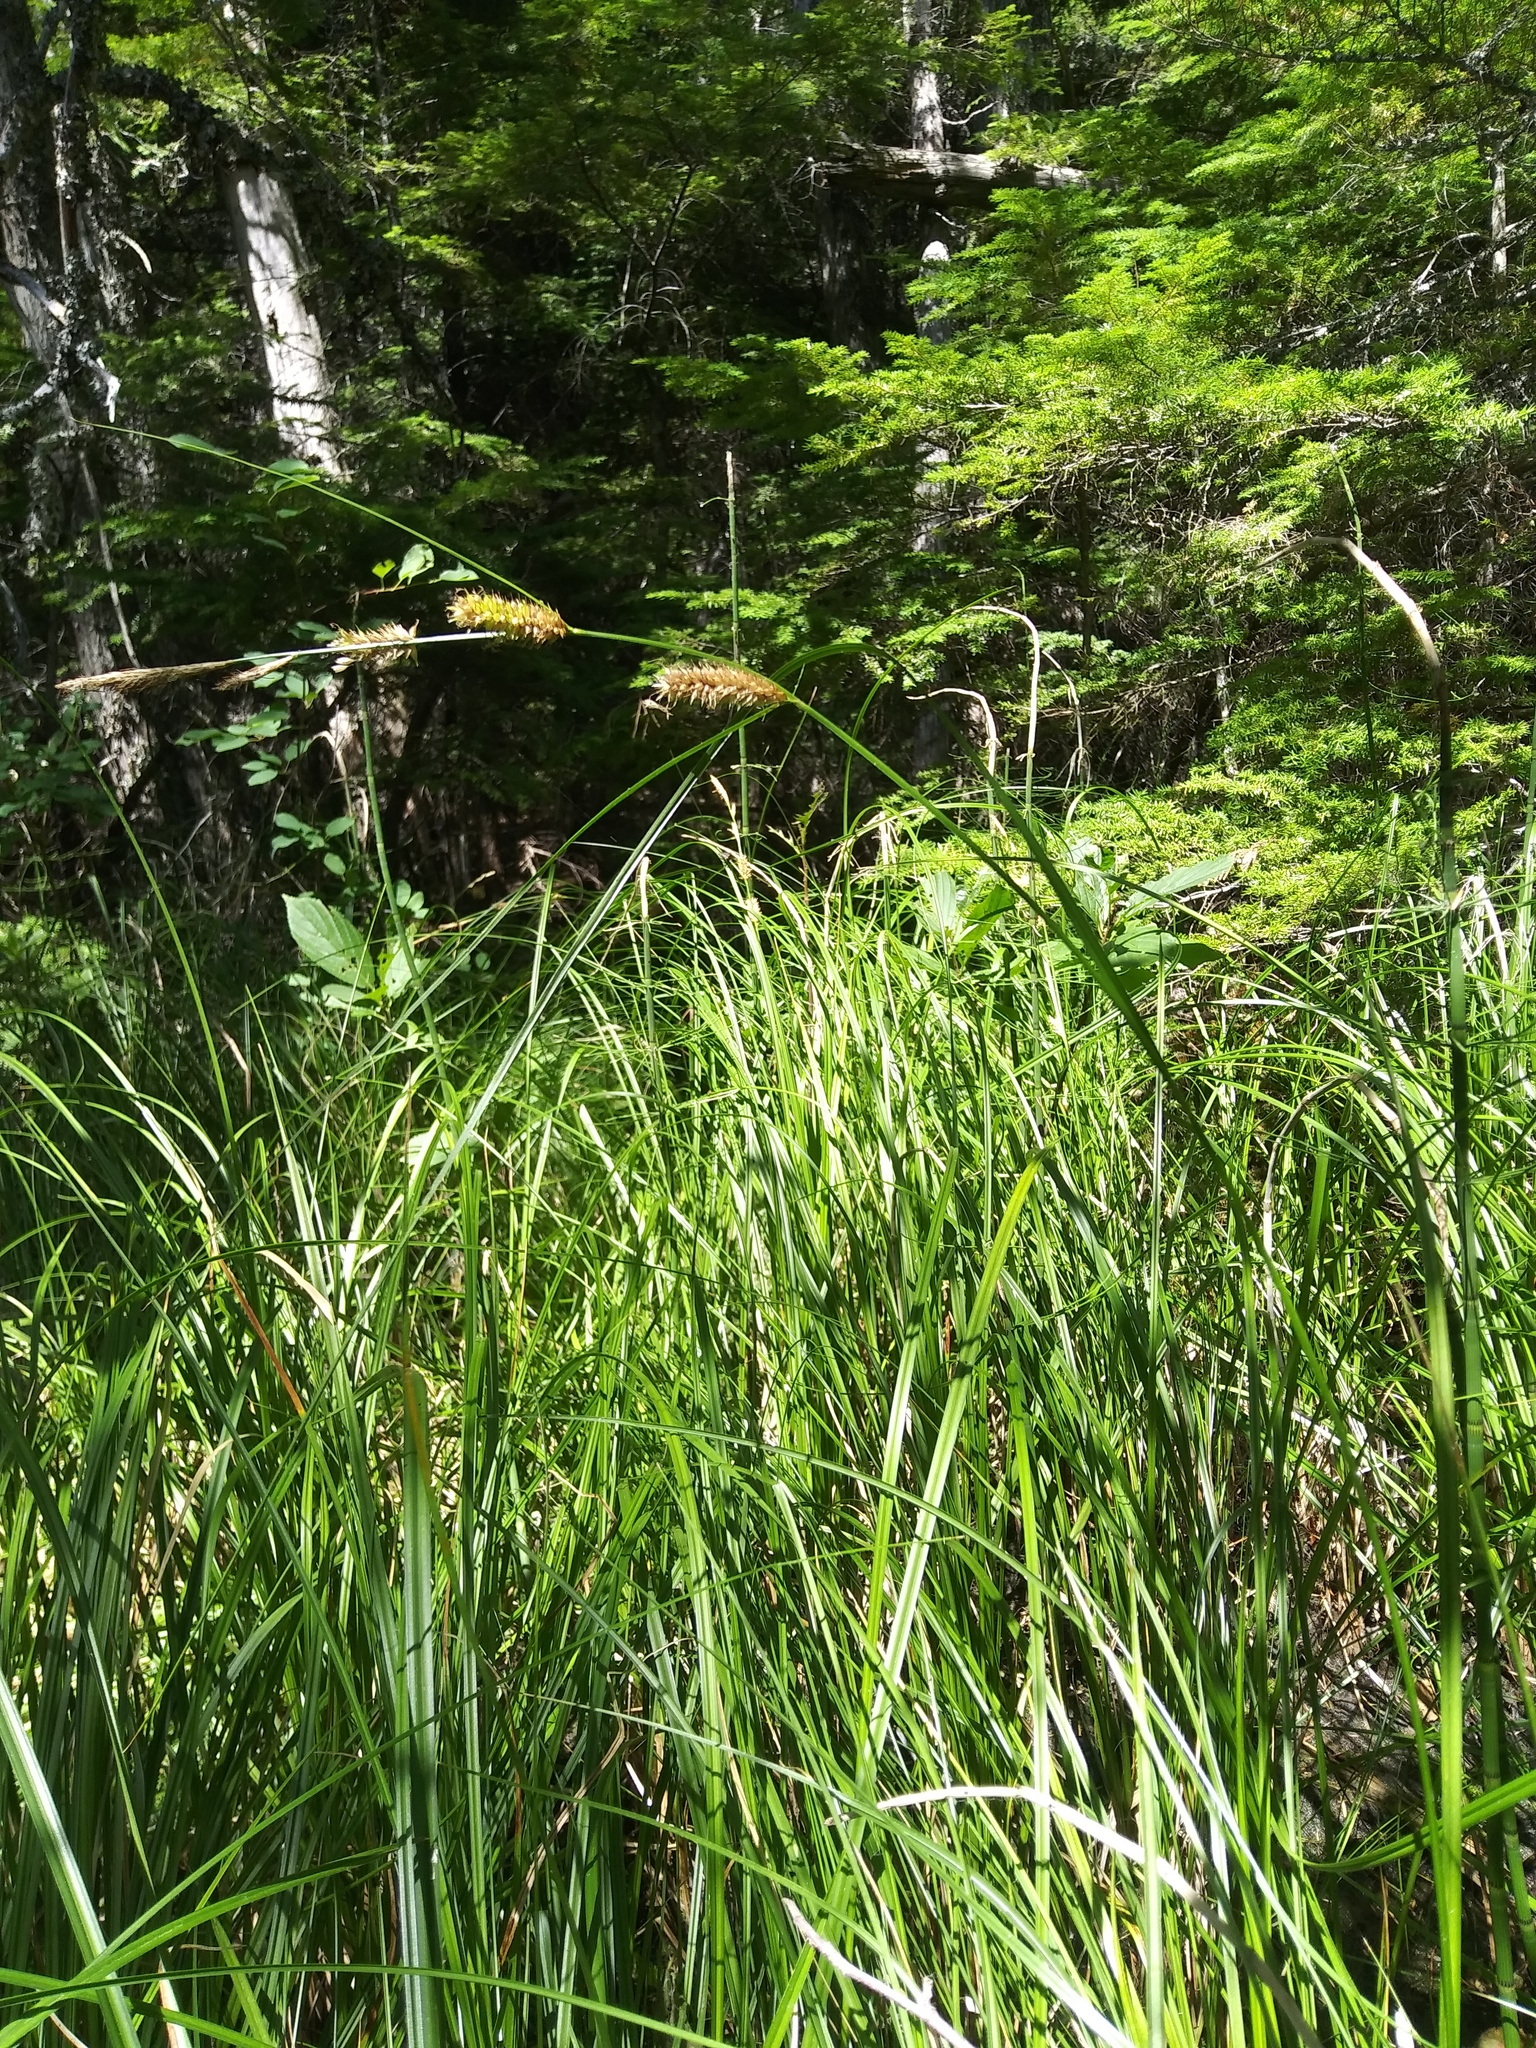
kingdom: Plantae
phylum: Tracheophyta
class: Liliopsida
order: Poales
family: Cyperaceae
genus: Carex
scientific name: Carex utriculata
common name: Beaked sedge
